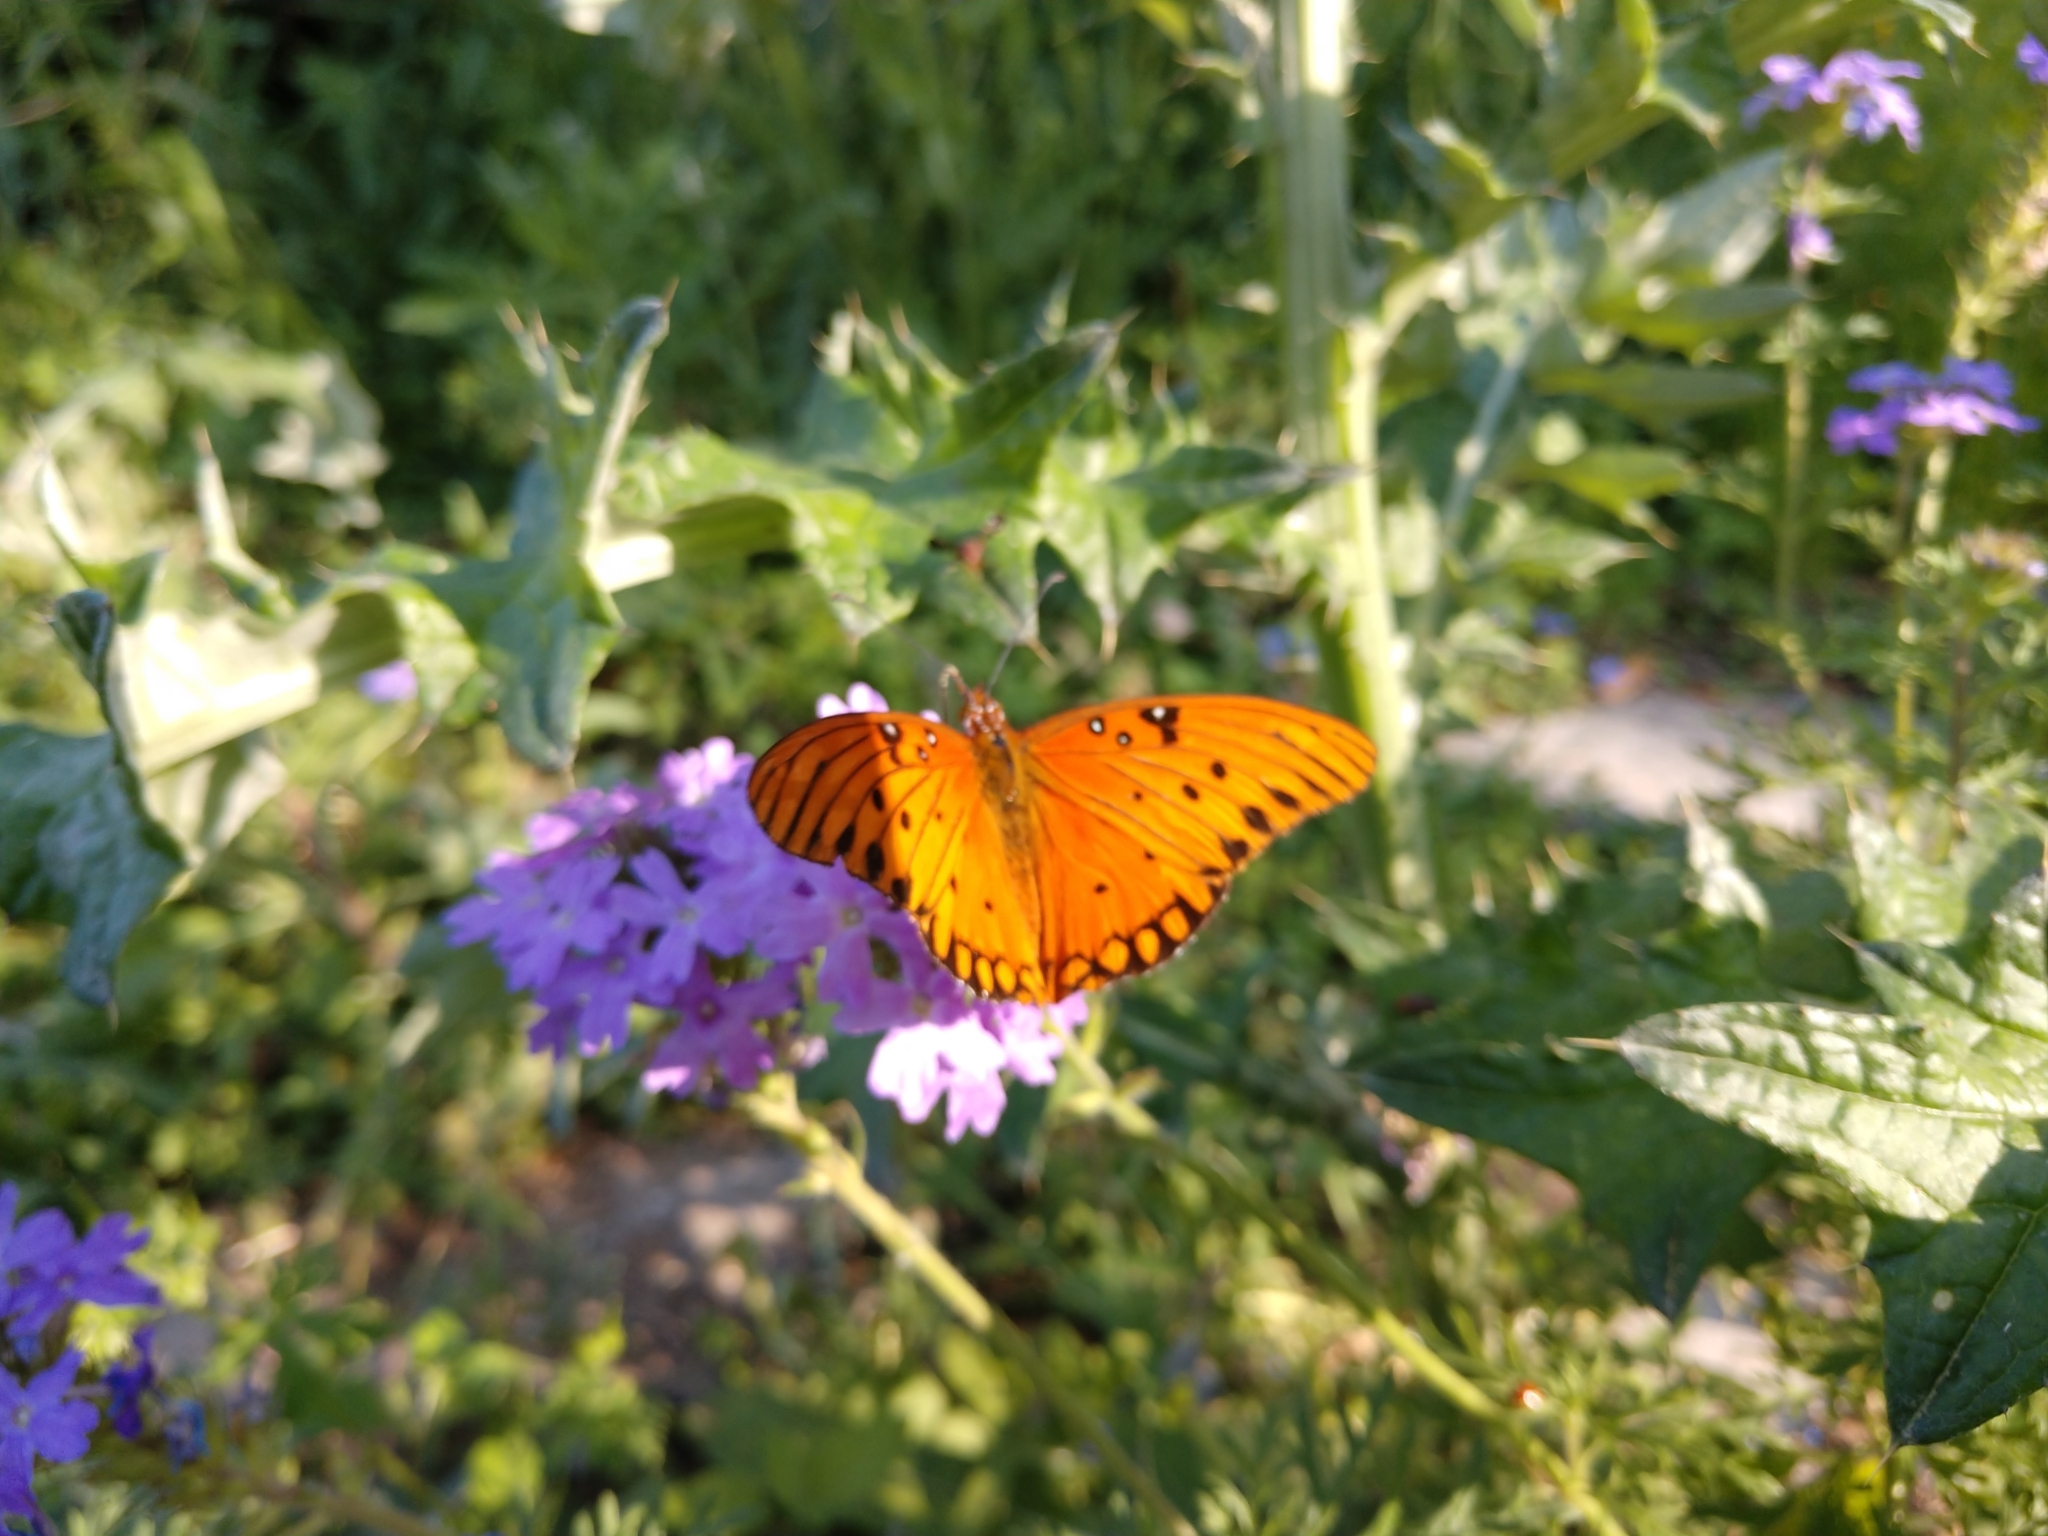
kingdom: Animalia
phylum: Arthropoda
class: Insecta
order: Lepidoptera
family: Nymphalidae
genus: Dione
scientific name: Dione vanillae
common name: Gulf fritillary
